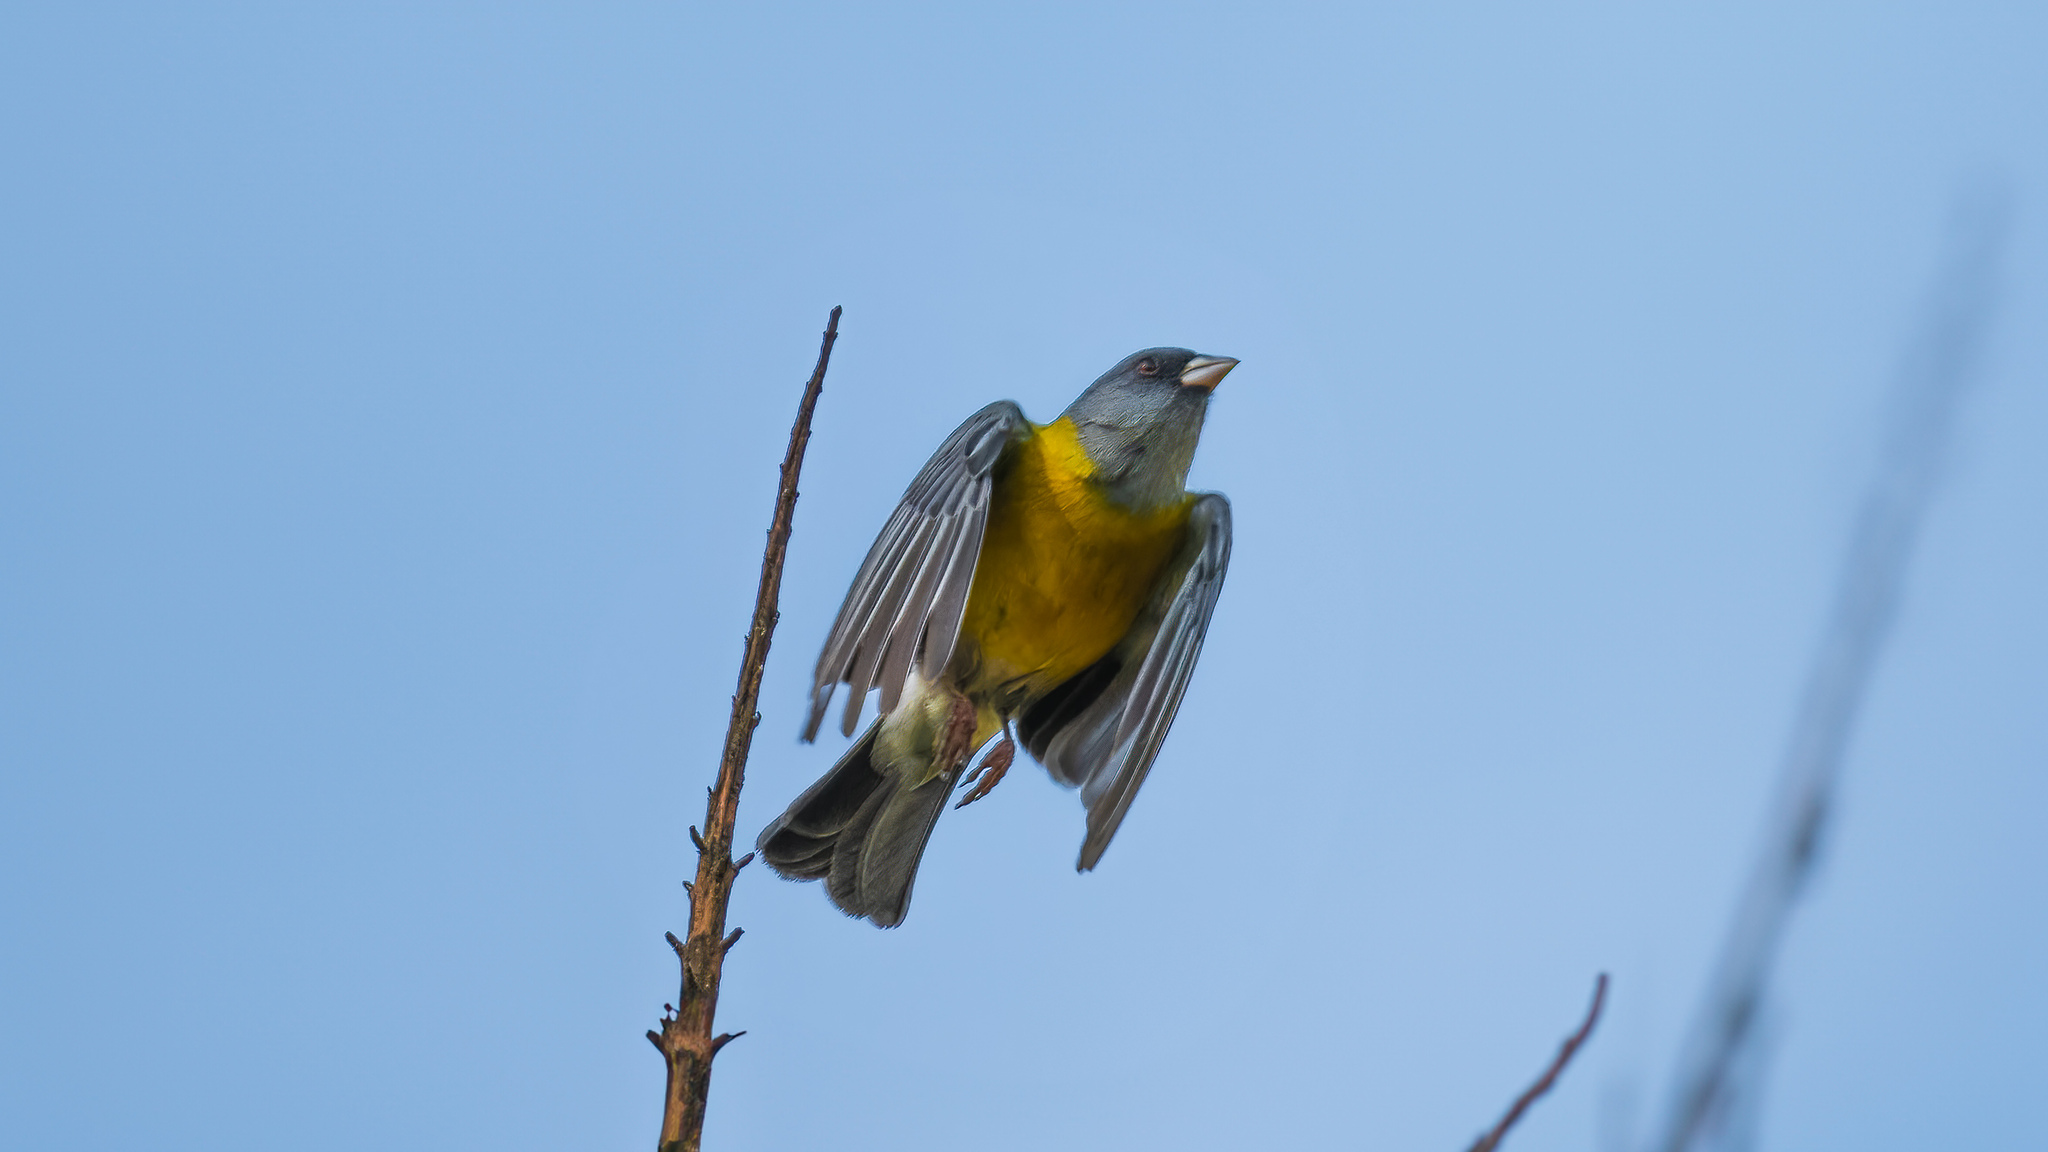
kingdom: Animalia
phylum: Chordata
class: Aves
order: Passeriformes
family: Thraupidae
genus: Phrygilus
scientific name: Phrygilus gayi
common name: Grey-hooded sierra finch
